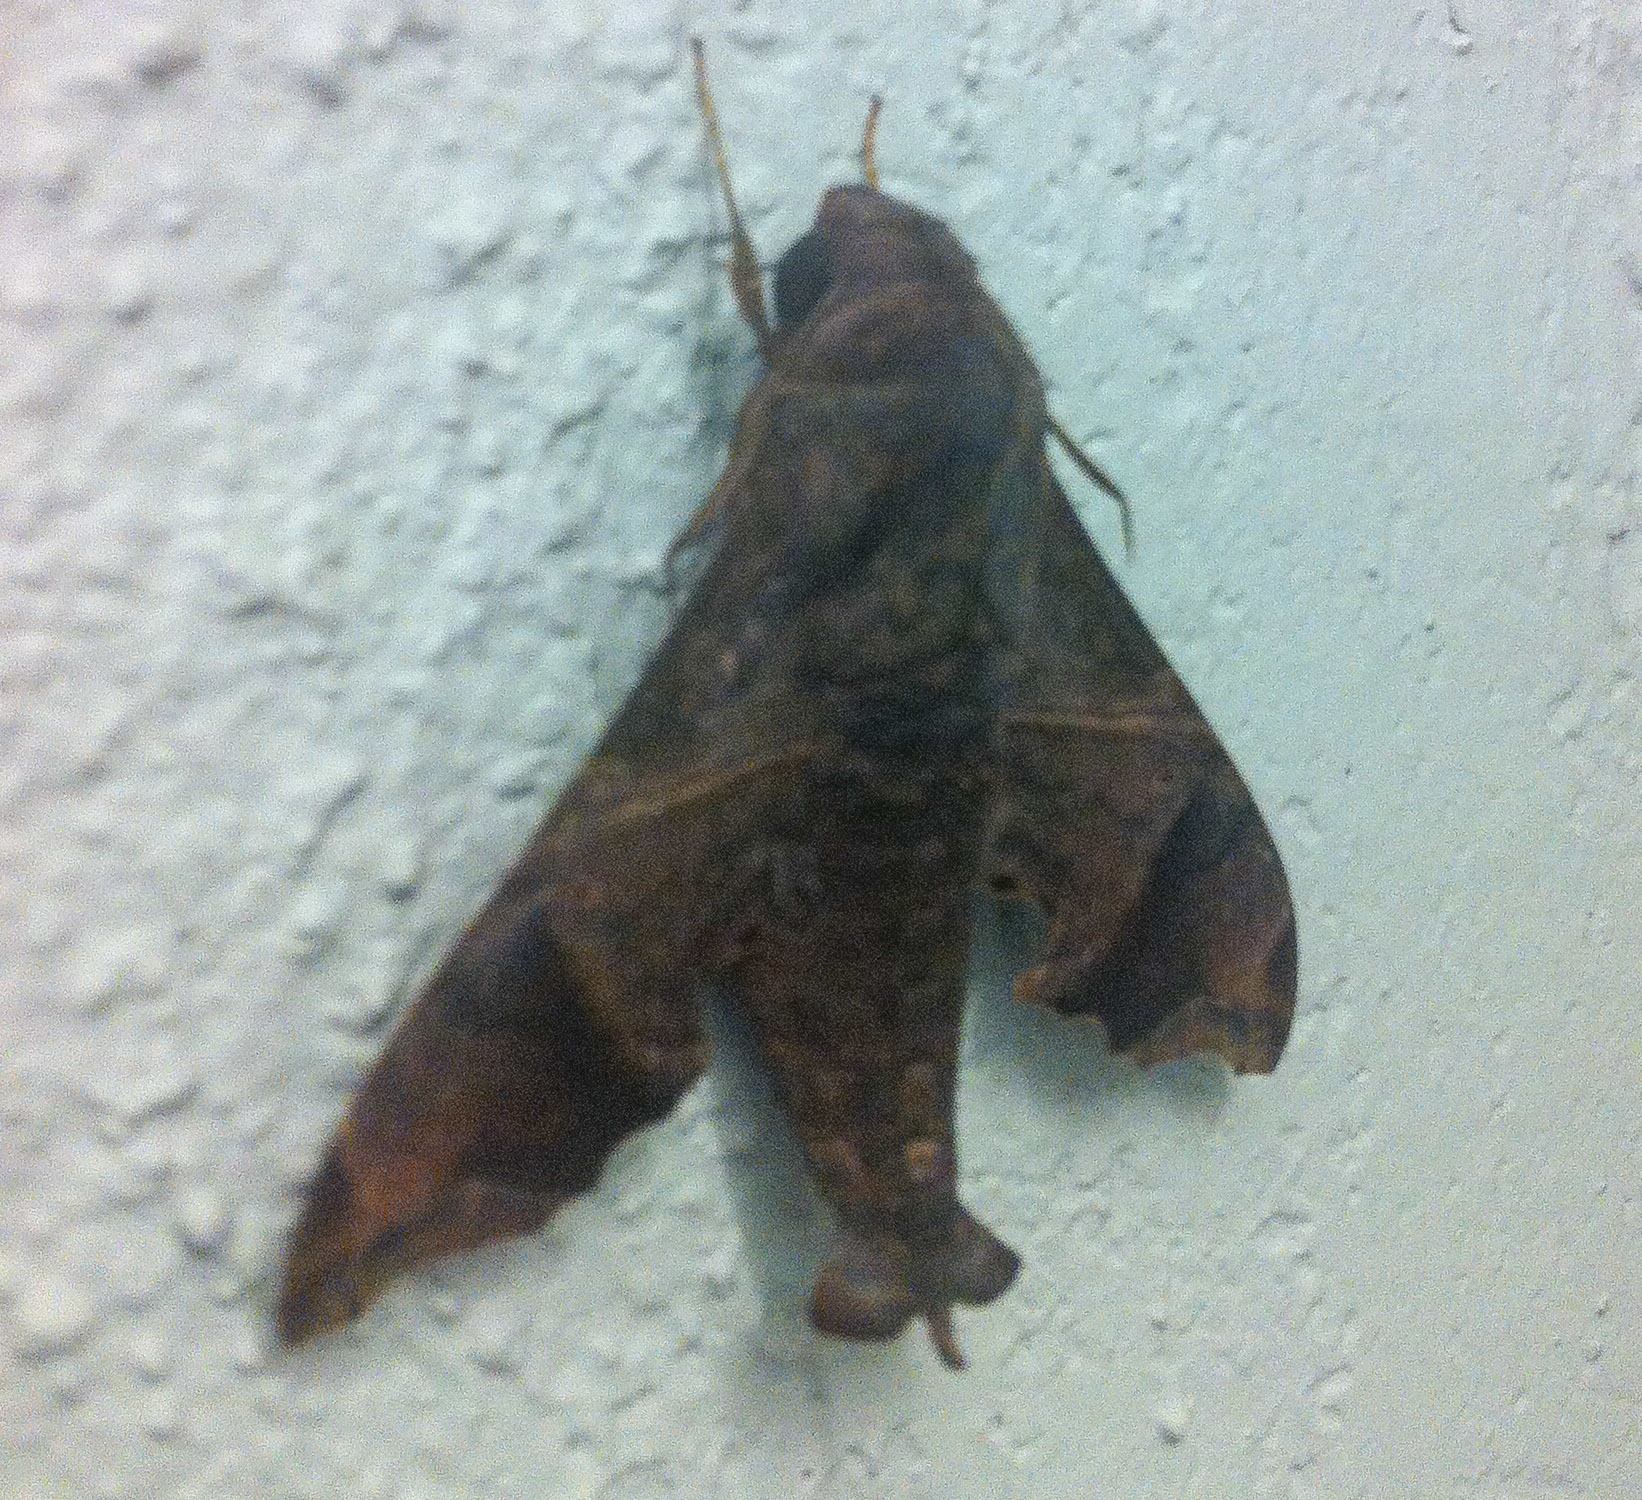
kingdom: Animalia
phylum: Arthropoda
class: Insecta
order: Lepidoptera
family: Sphingidae
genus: Enyo
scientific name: Enyo lugubris
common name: Mournful sphinx
